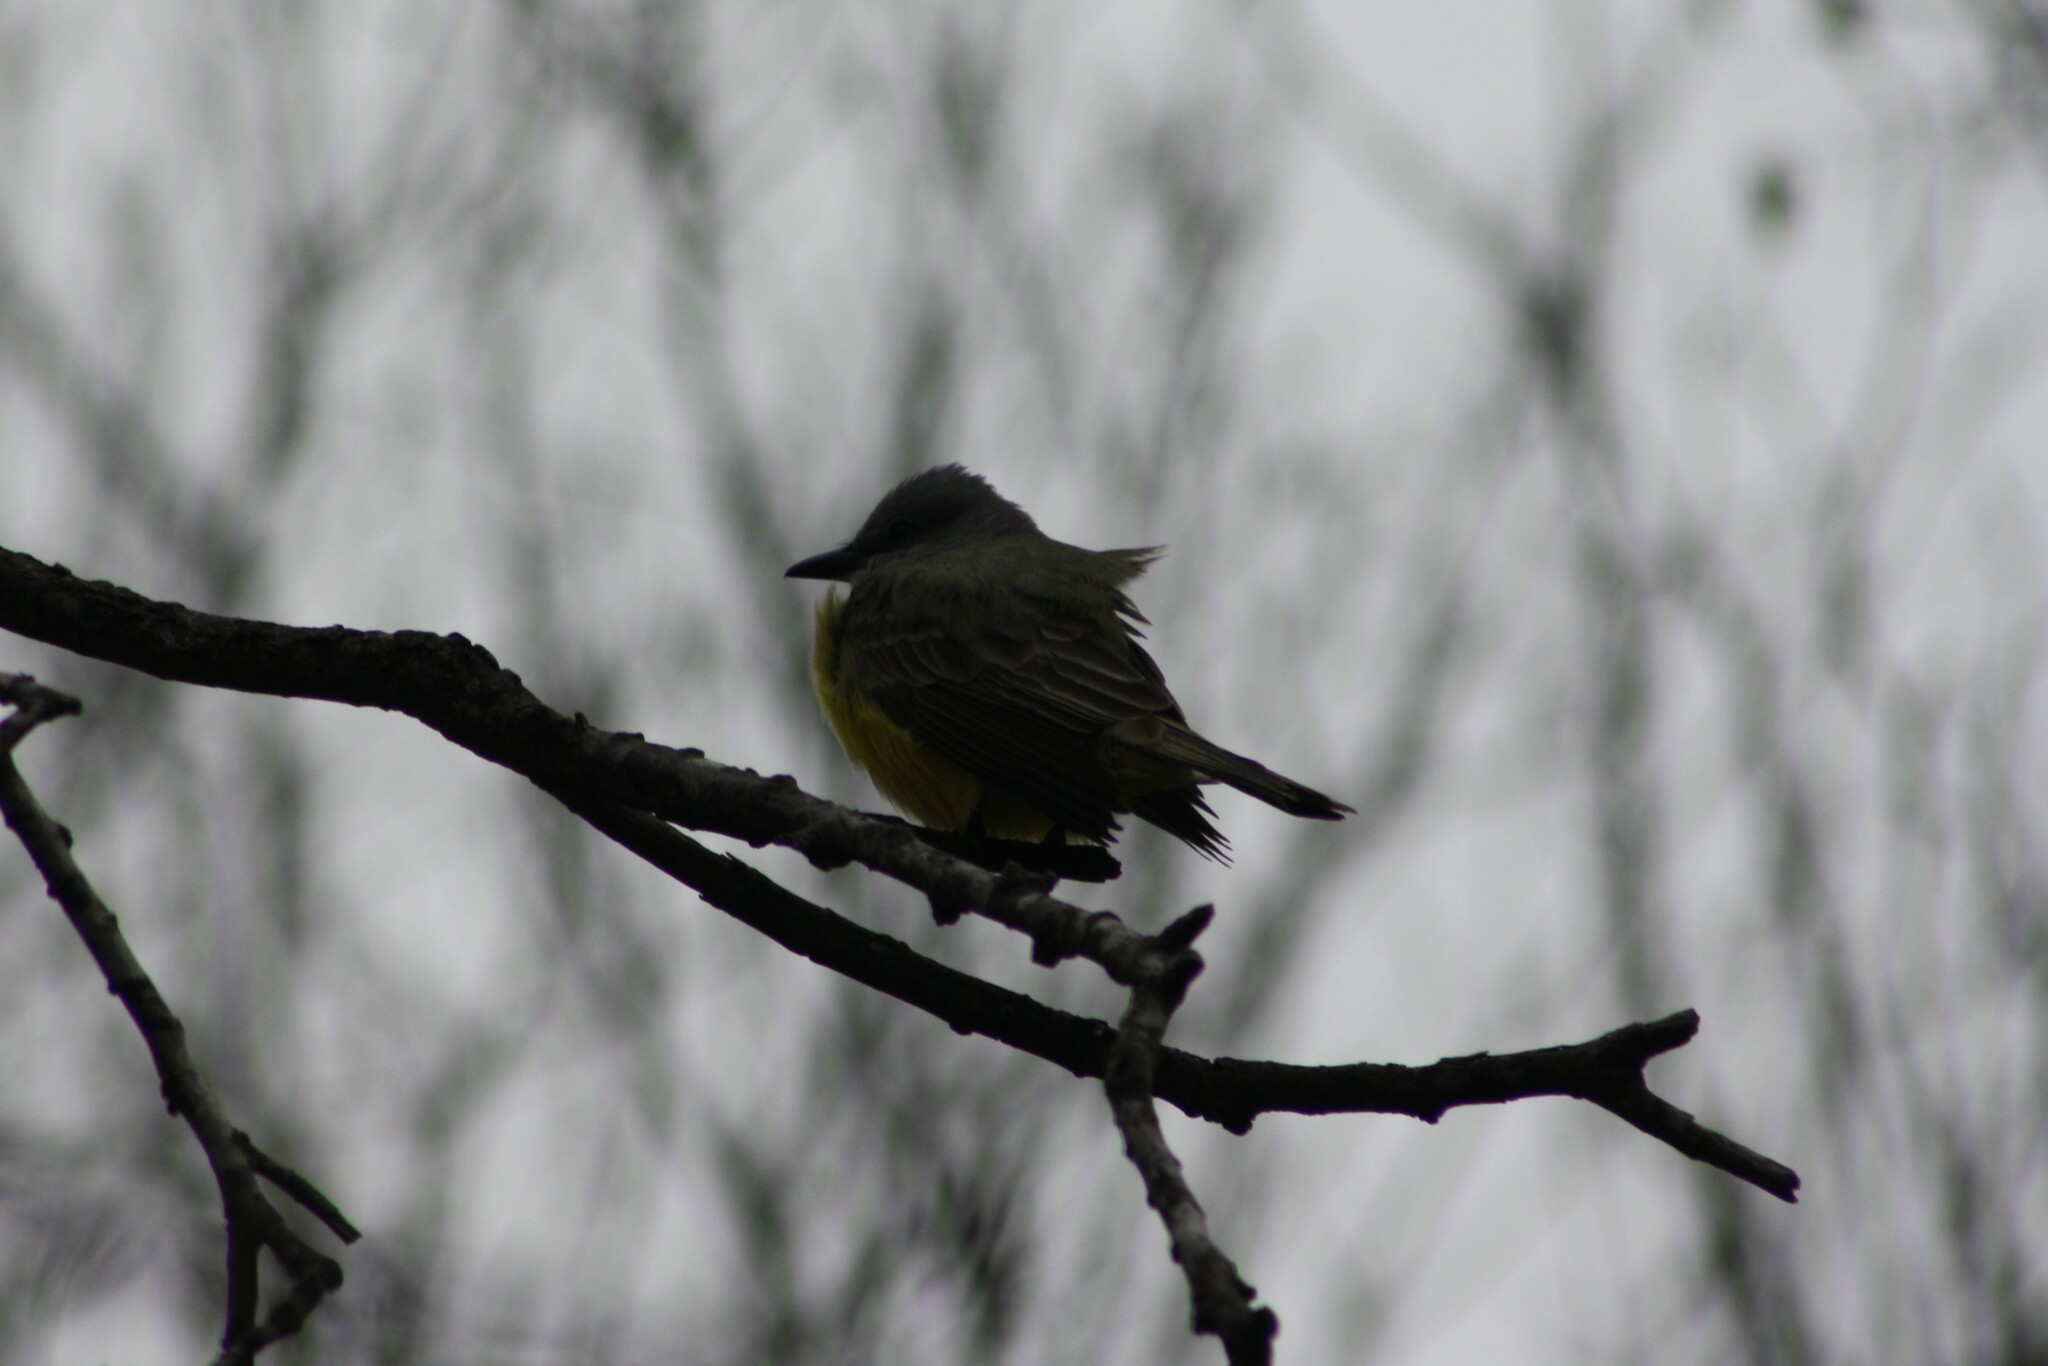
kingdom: Animalia
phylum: Chordata
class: Aves
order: Passeriformes
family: Tyrannidae
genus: Tyrannus
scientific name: Tyrannus couchii
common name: Couch's kingbird
